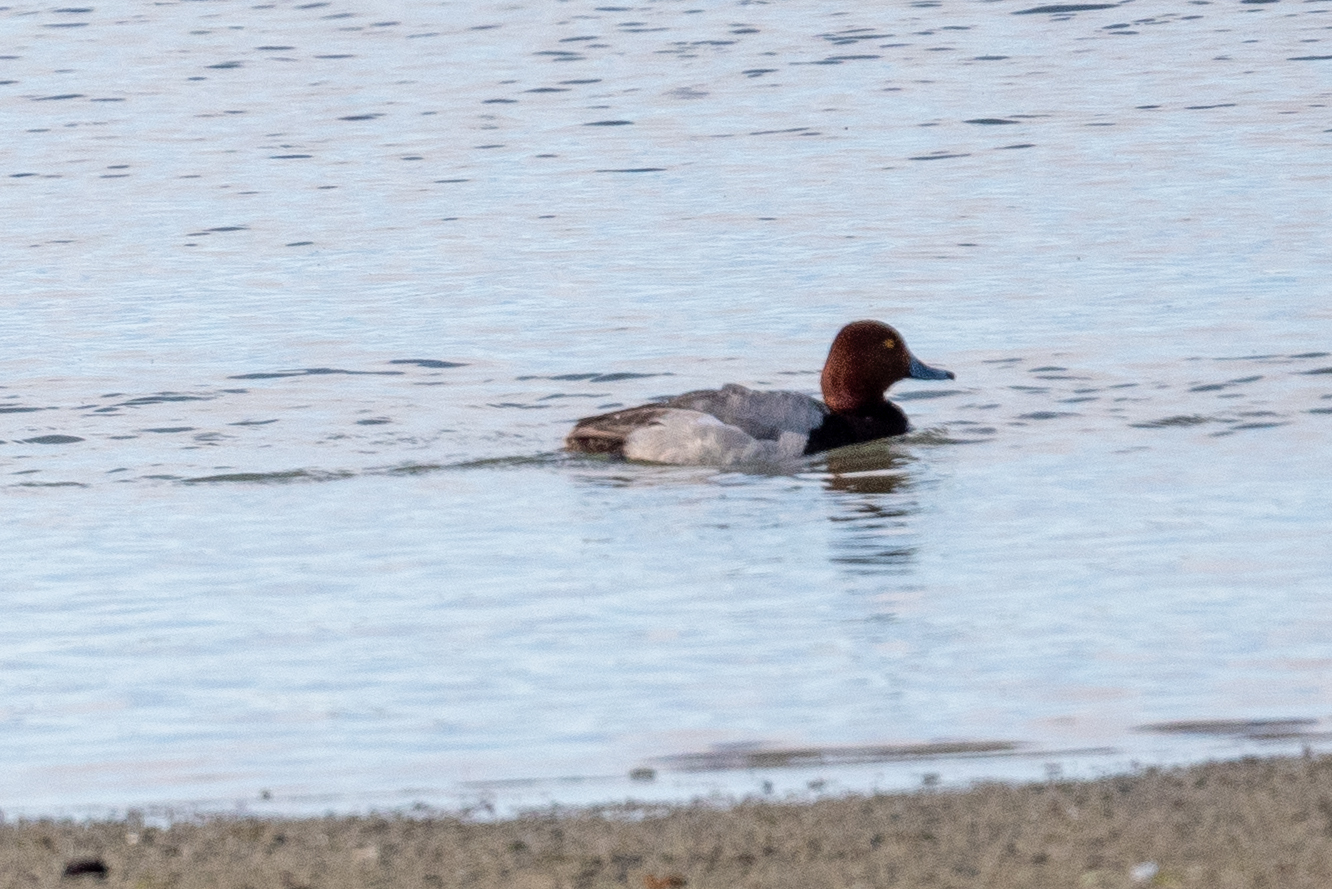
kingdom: Animalia
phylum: Chordata
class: Aves
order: Anseriformes
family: Anatidae
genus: Aythya
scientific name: Aythya americana
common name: Redhead
